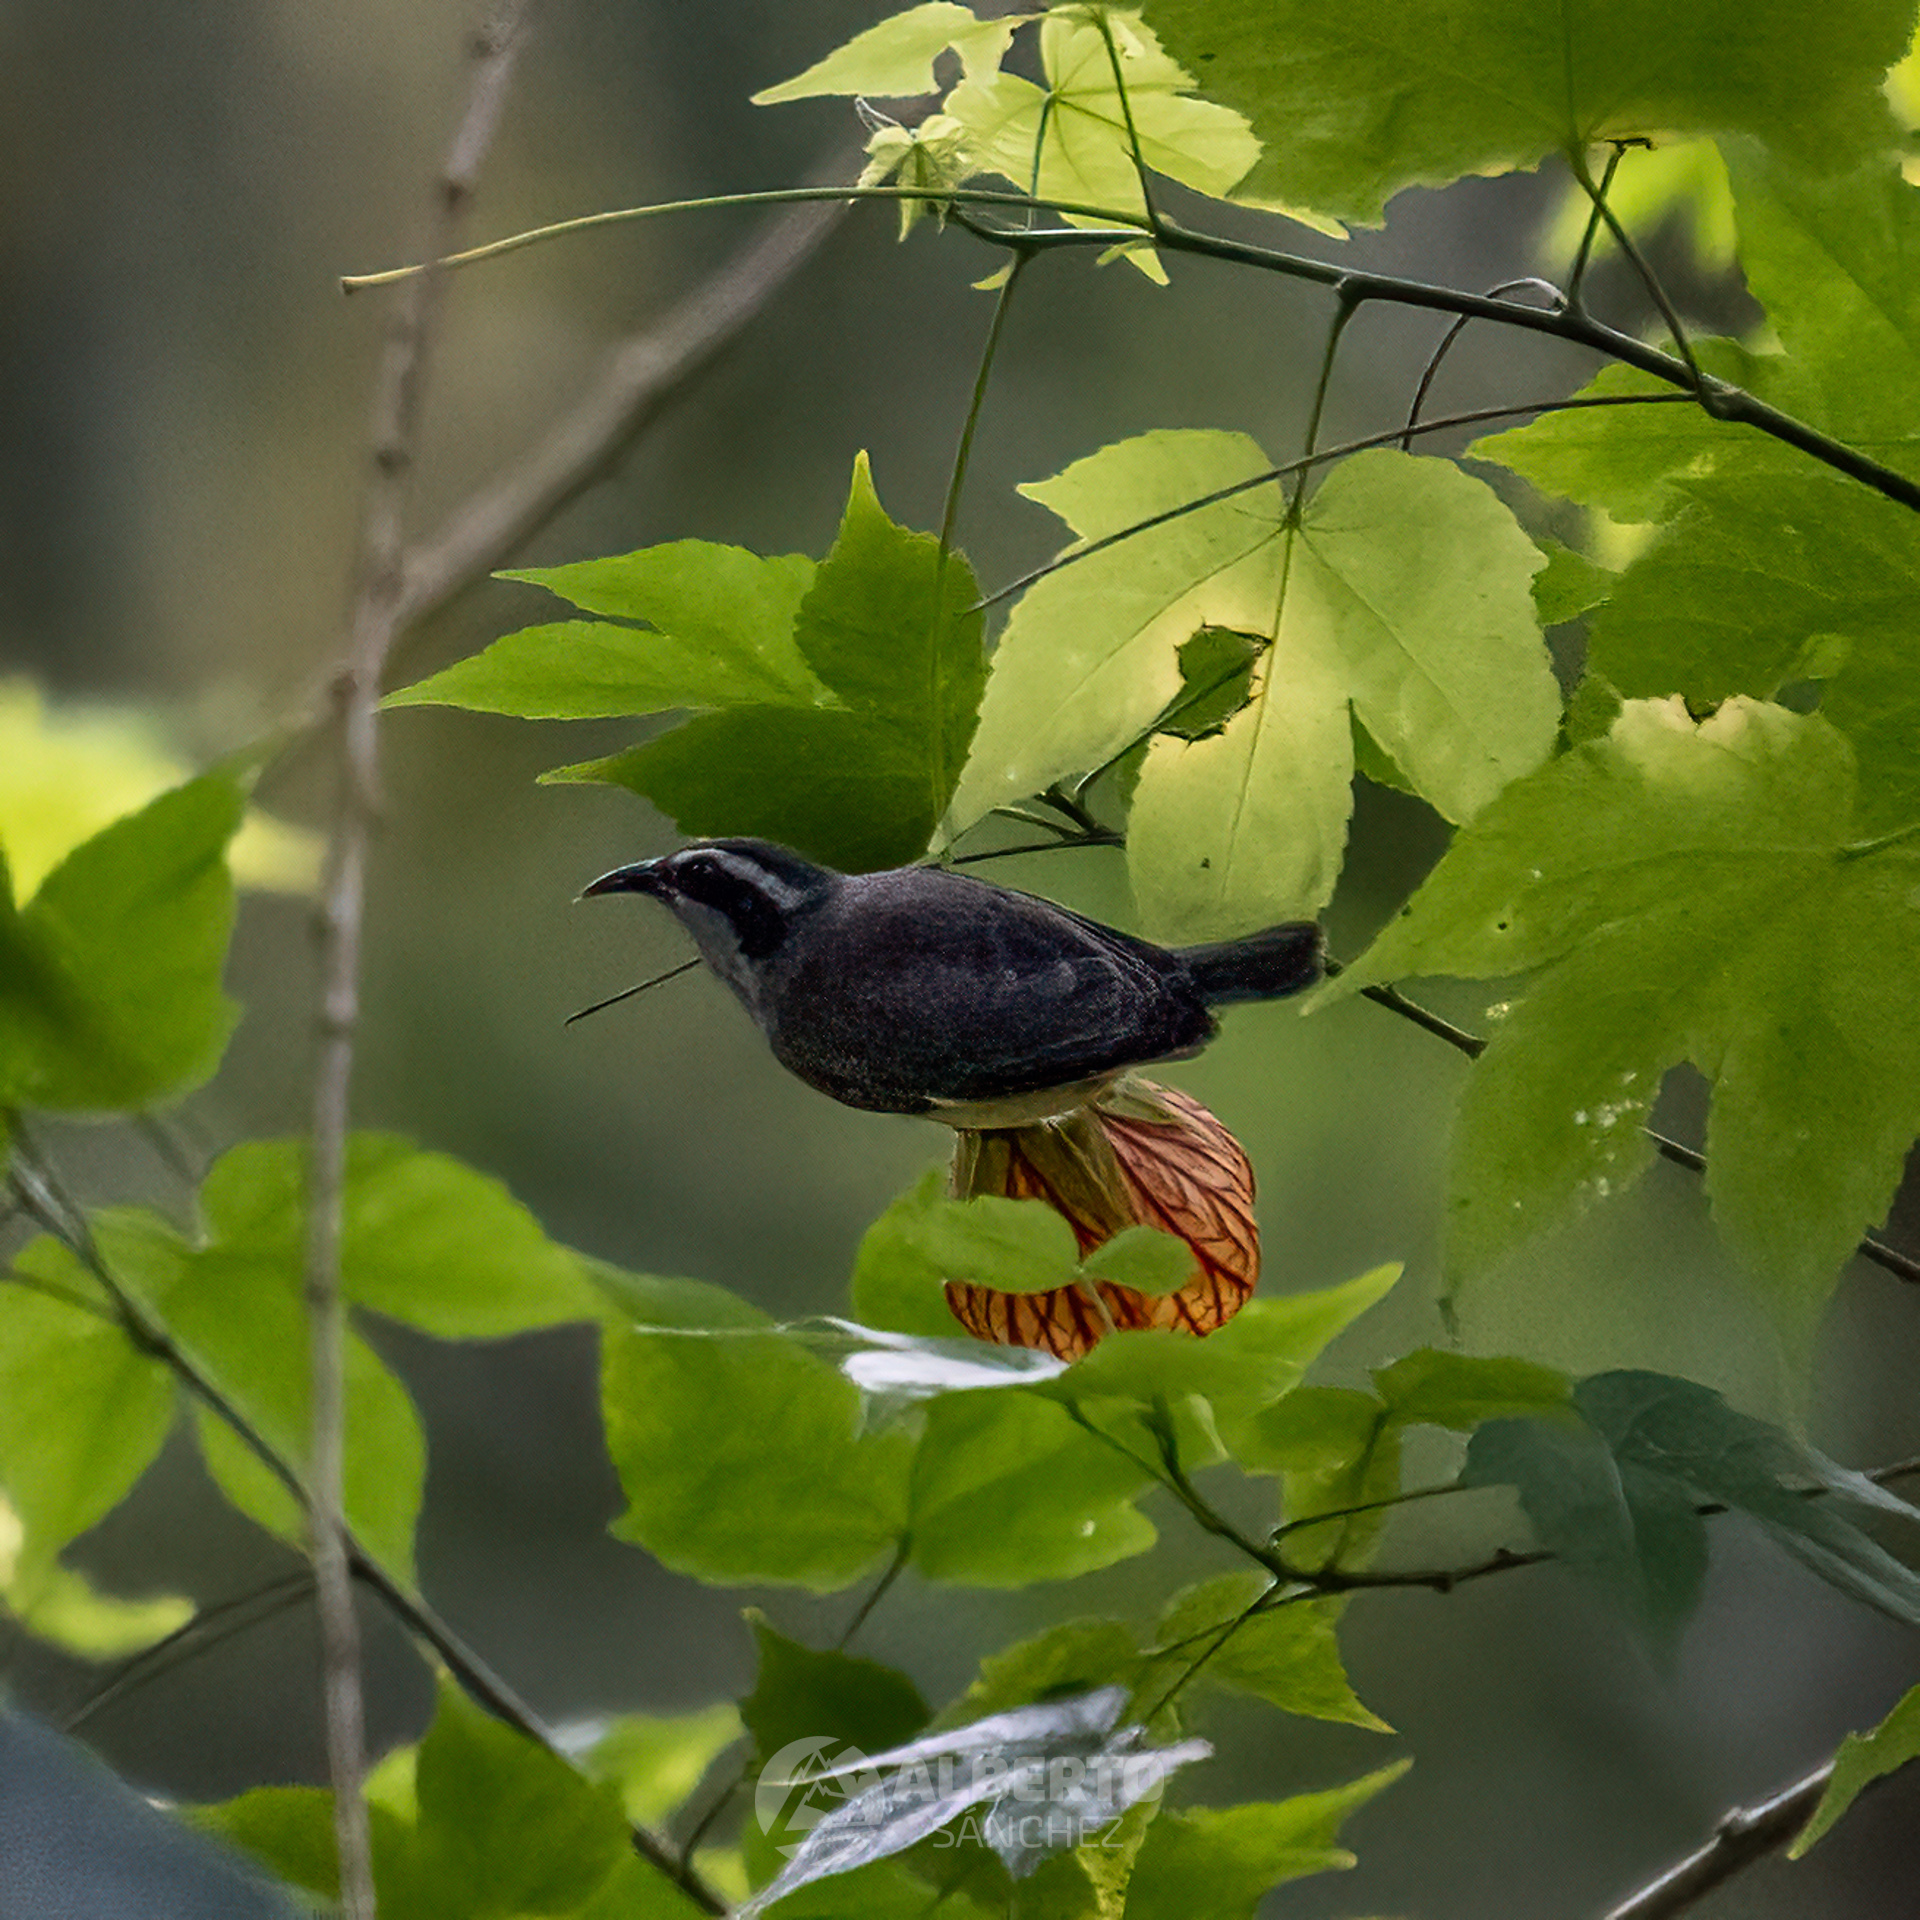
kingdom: Animalia
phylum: Chordata
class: Aves
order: Passeriformes
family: Thraupidae
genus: Coereba
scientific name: Coereba flaveola
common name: Bananaquit
